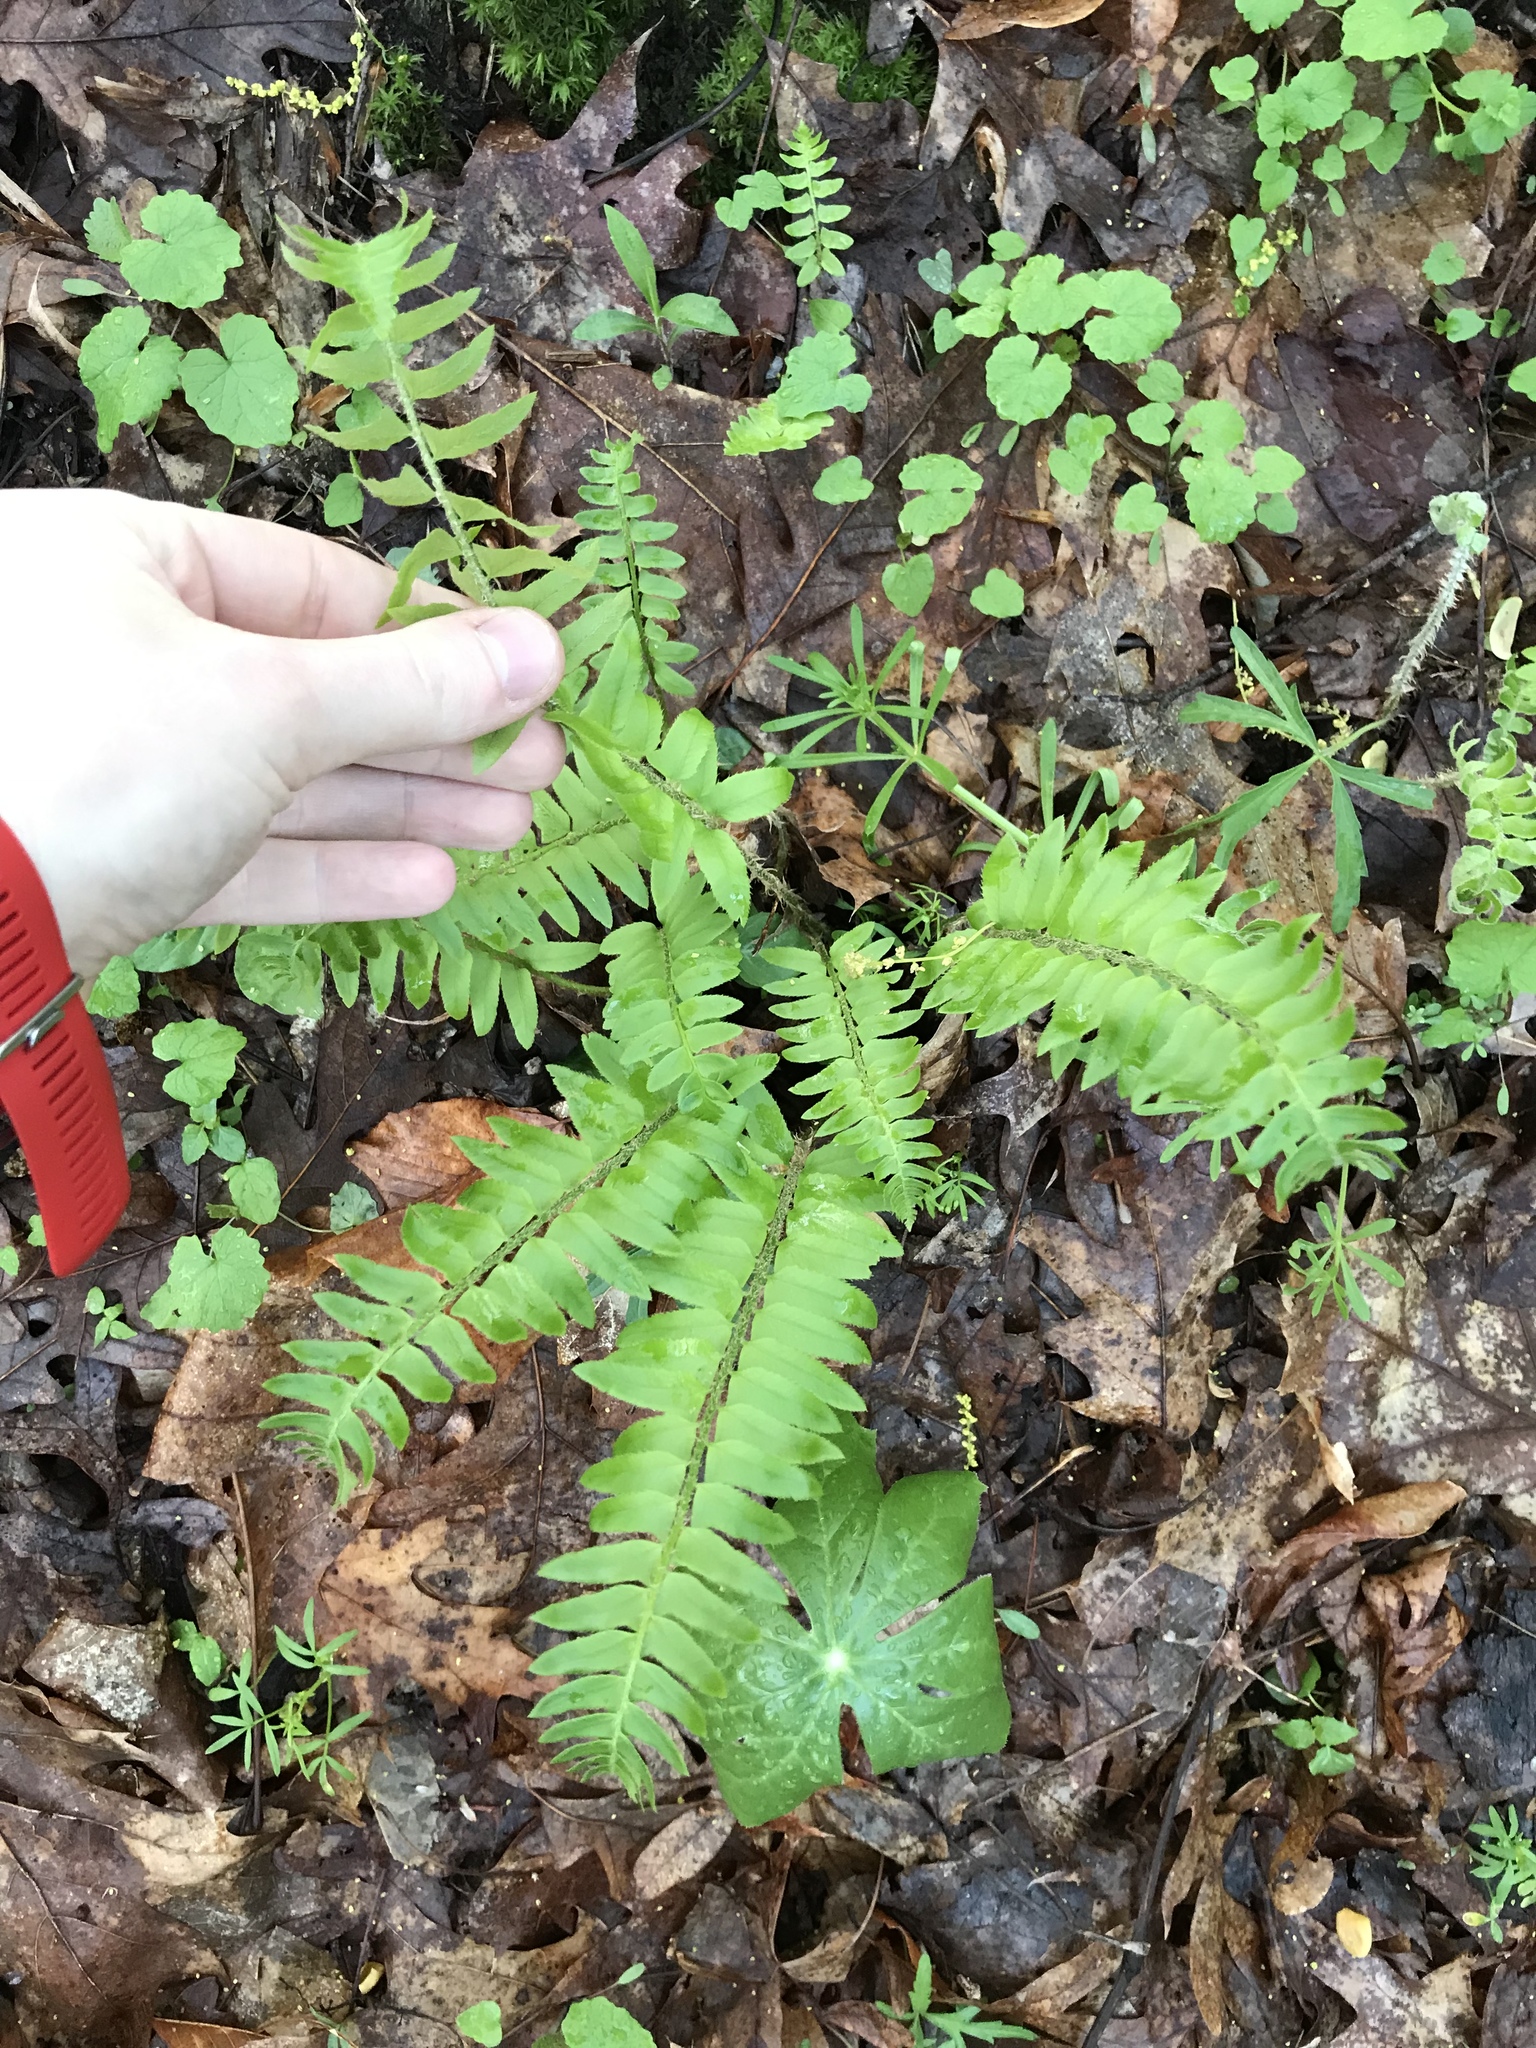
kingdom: Plantae
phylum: Tracheophyta
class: Polypodiopsida
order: Polypodiales
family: Dryopteridaceae
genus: Polystichum
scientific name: Polystichum acrostichoides
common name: Christmas fern
